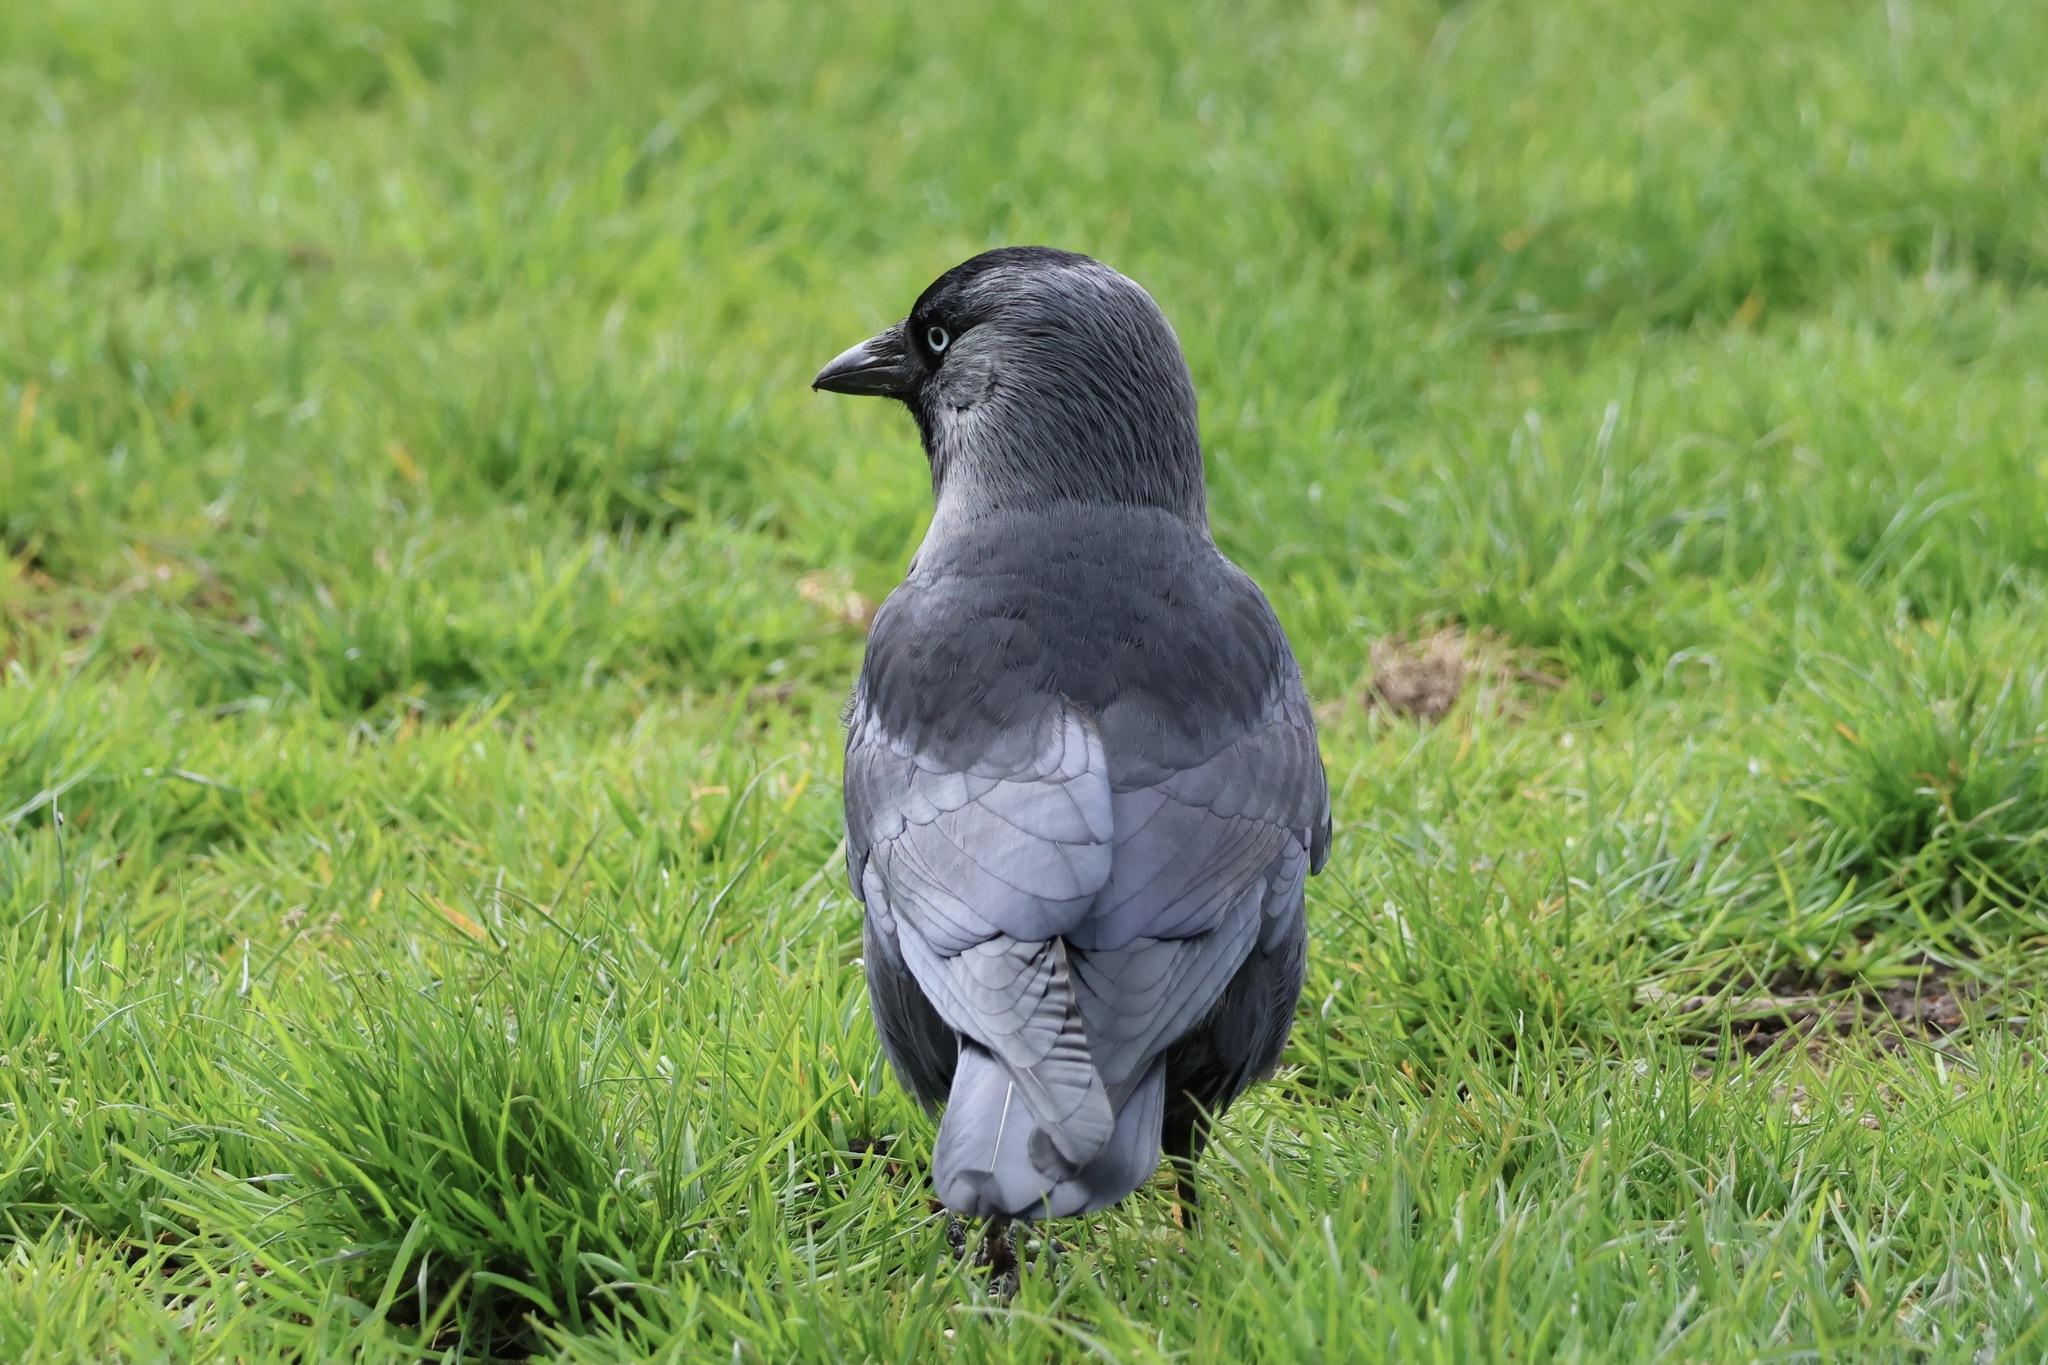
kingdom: Animalia
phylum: Chordata
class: Aves
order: Passeriformes
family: Corvidae
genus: Coloeus
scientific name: Coloeus monedula
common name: Western jackdaw
